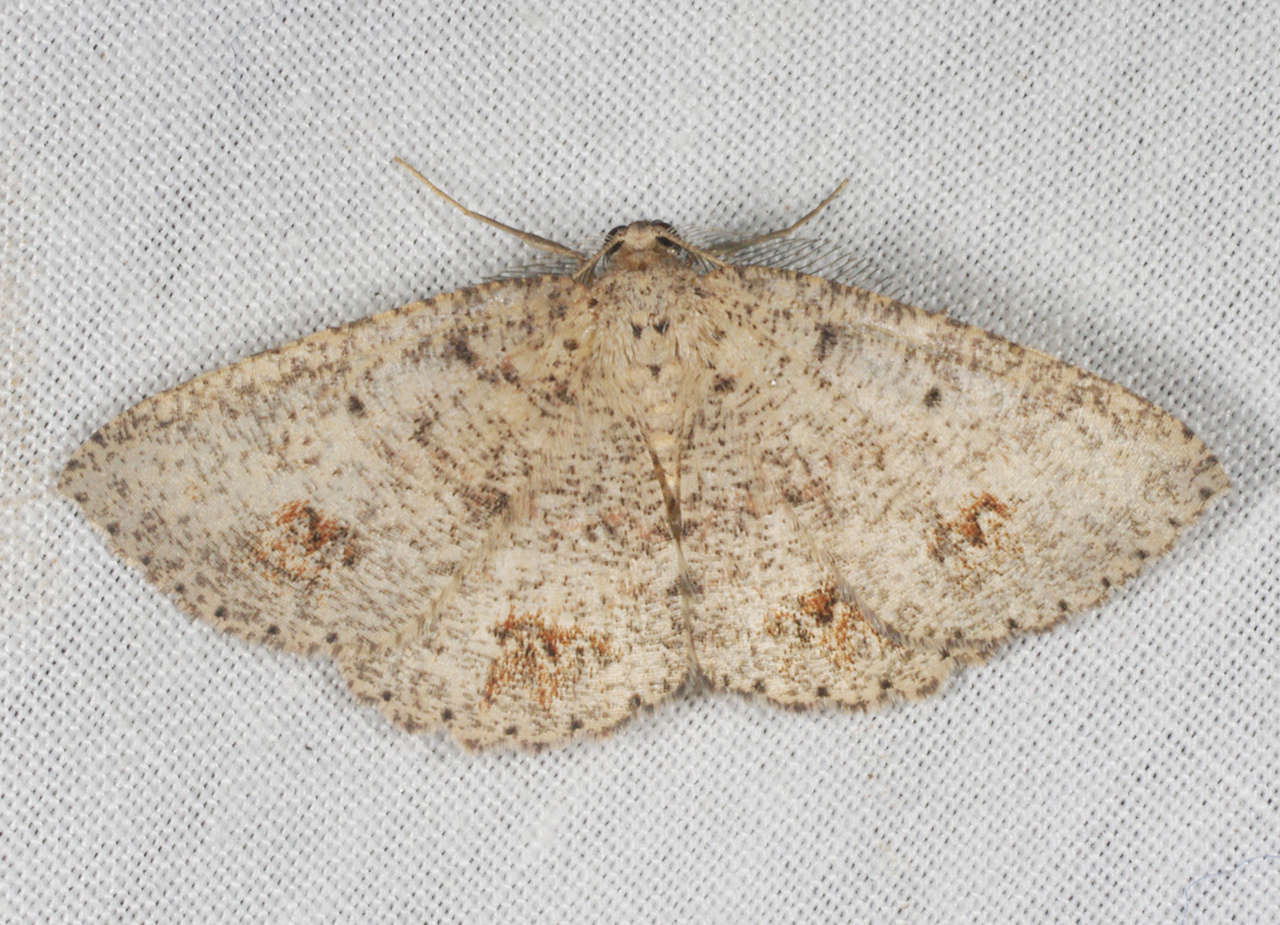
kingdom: Animalia
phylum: Arthropoda
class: Insecta
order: Lepidoptera
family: Geometridae
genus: Casbia
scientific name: Casbia celidosema
